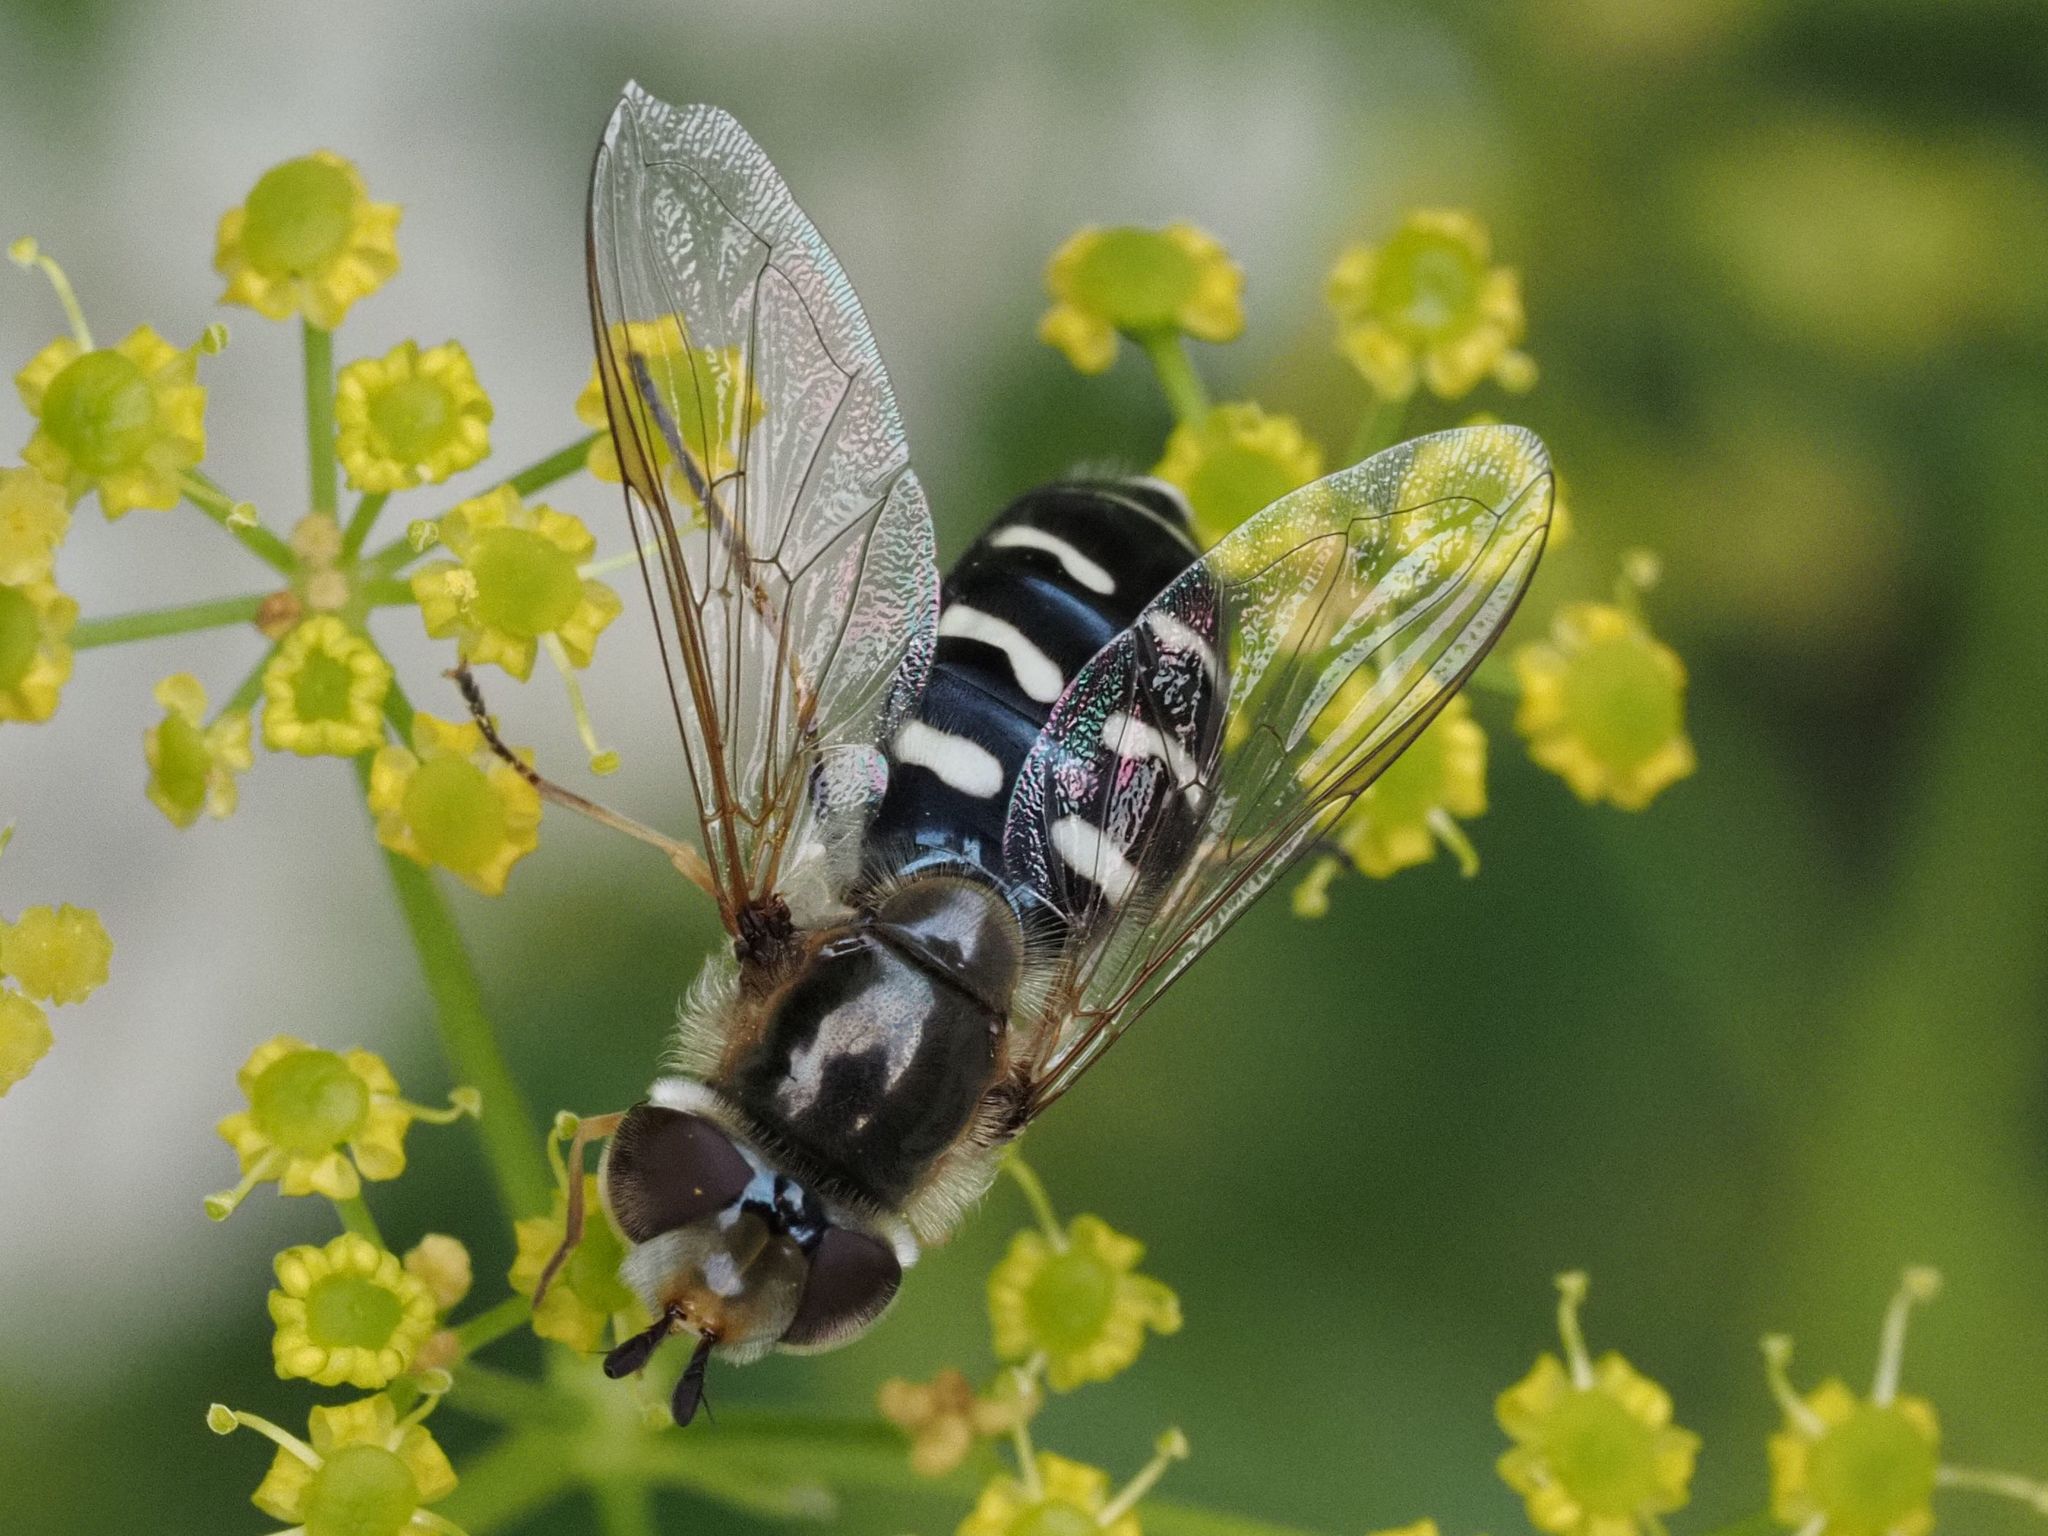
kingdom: Animalia
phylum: Arthropoda
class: Insecta
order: Diptera
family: Syrphidae
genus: Scaeva
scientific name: Scaeva pyrastri
